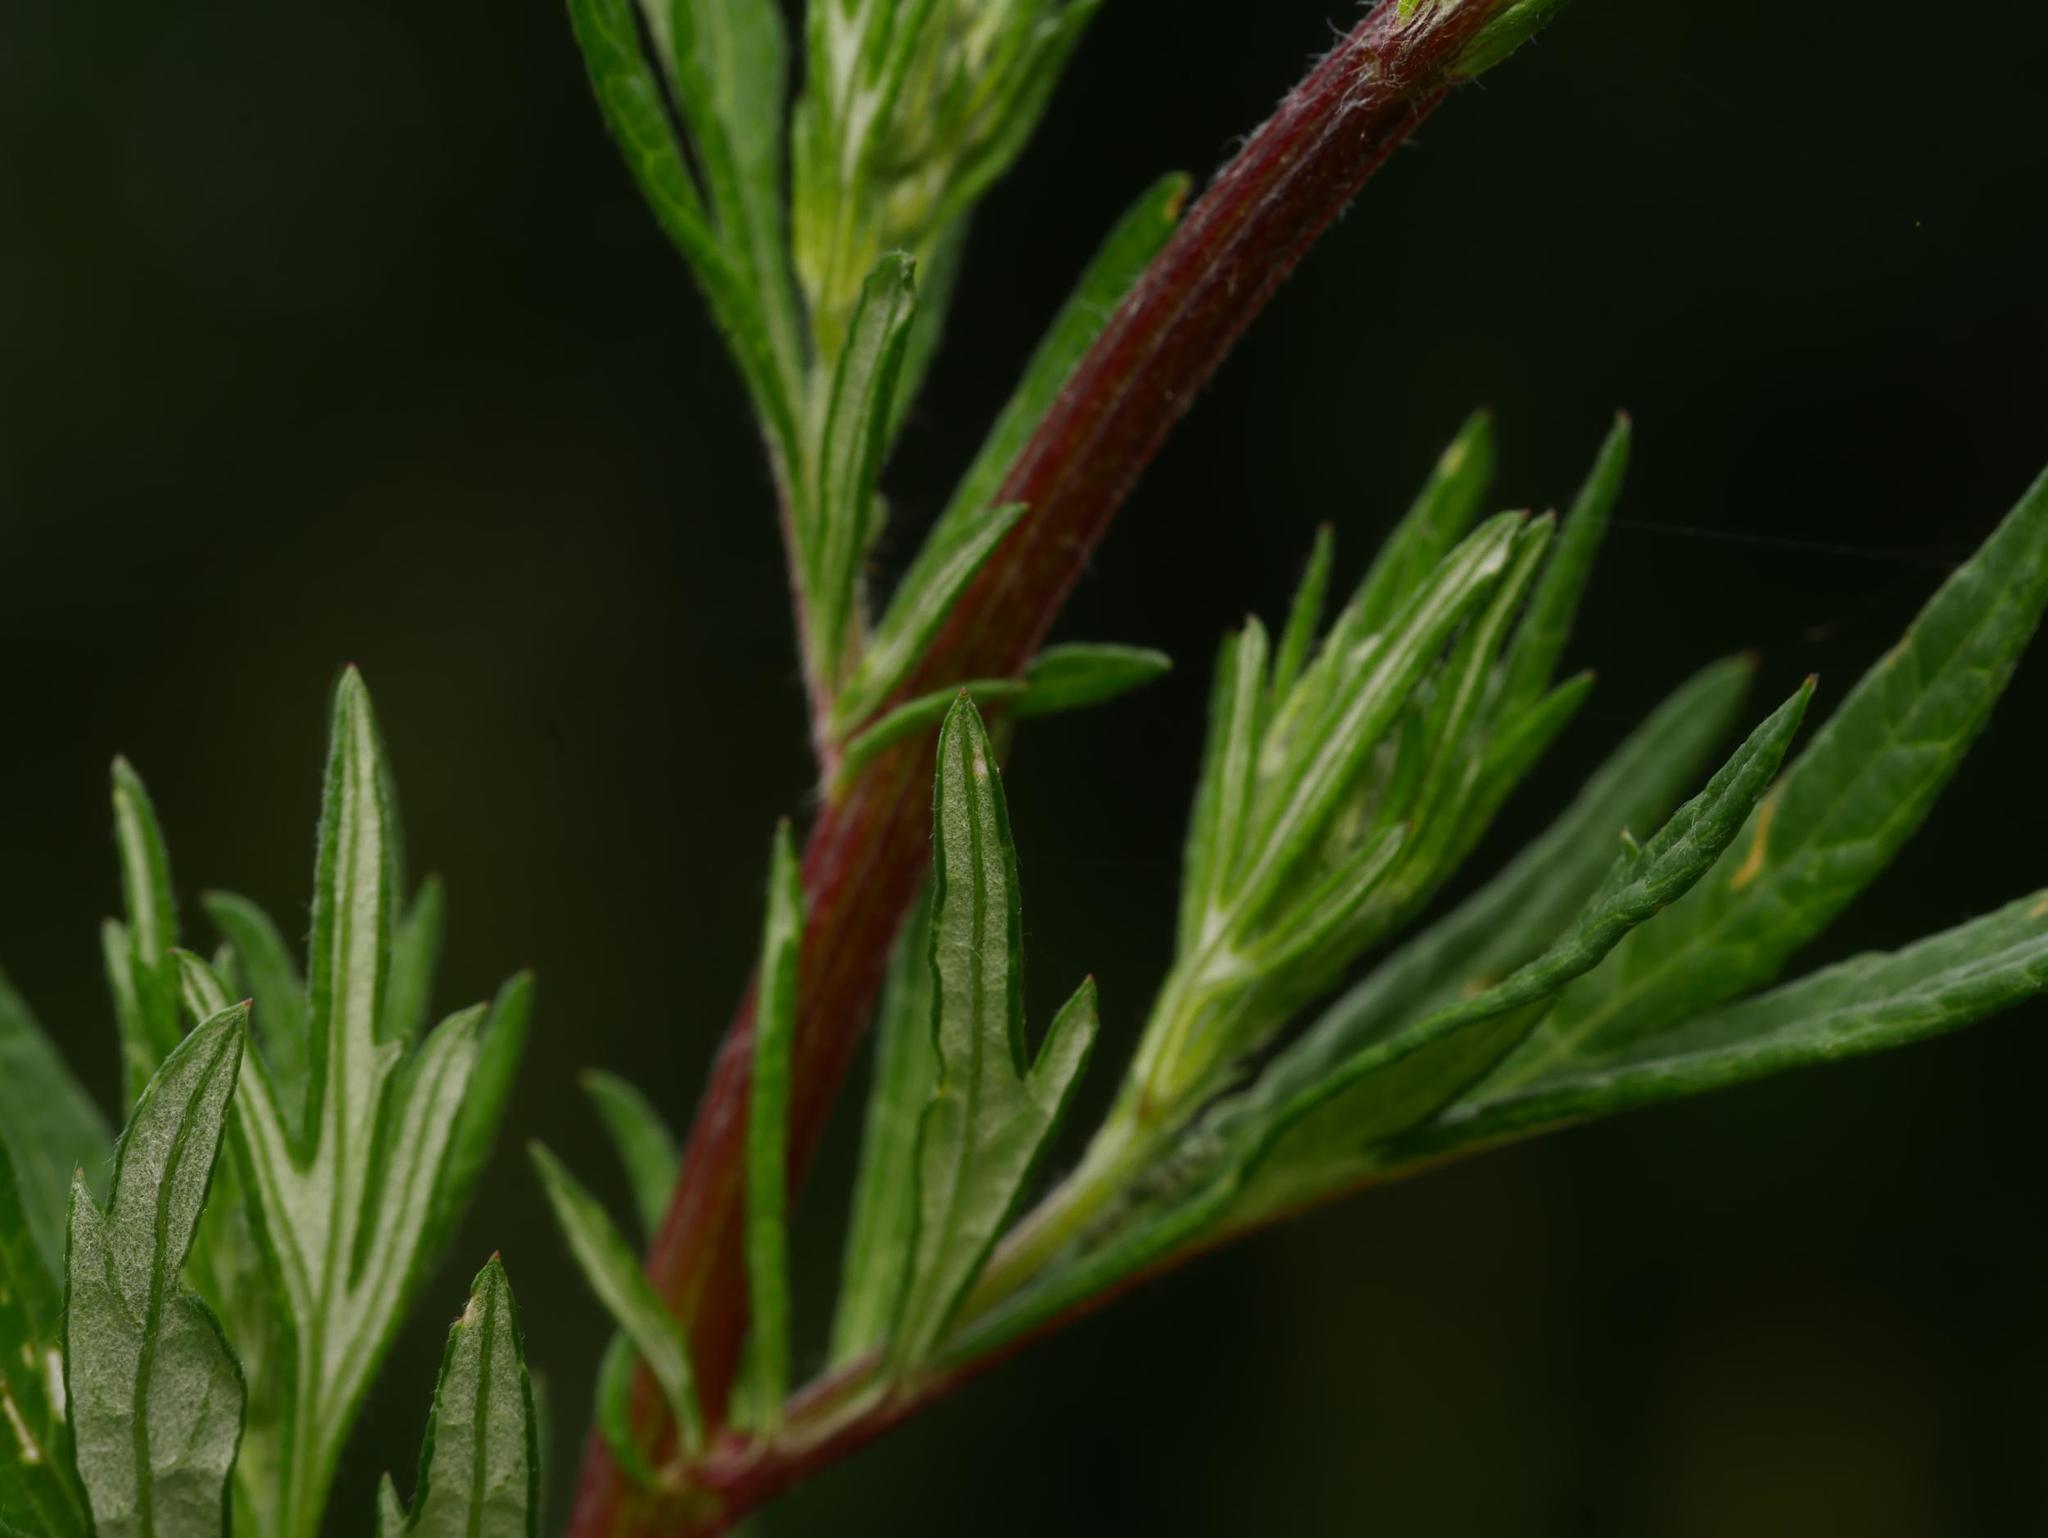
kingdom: Plantae
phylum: Tracheophyta
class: Magnoliopsida
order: Asterales
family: Asteraceae
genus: Artemisia
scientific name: Artemisia vulgaris
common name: Mugwort
